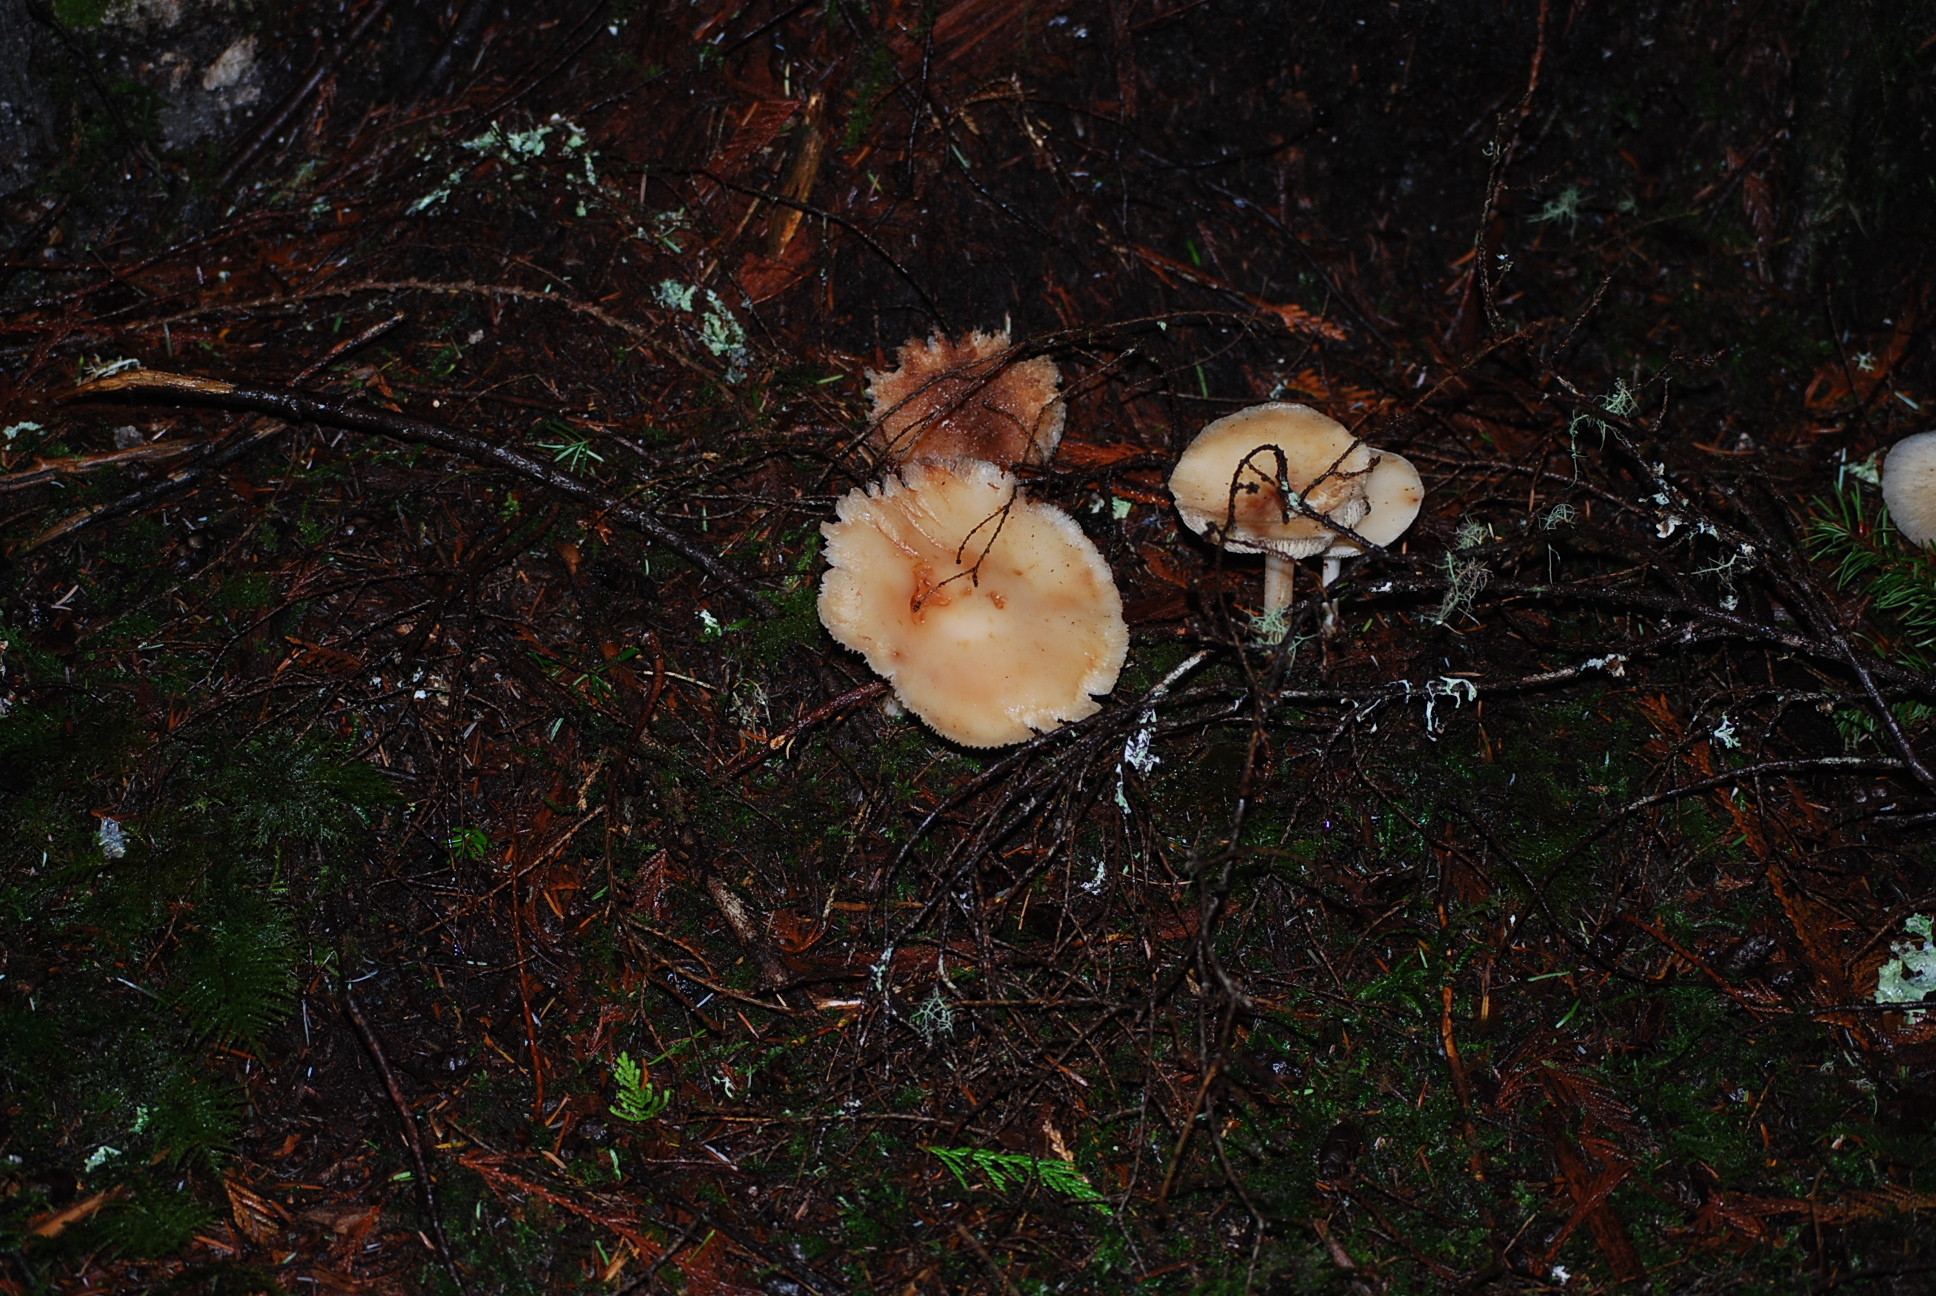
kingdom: Fungi
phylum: Basidiomycota
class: Agaricomycetes
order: Agaricales
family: Omphalotaceae
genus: Rhodocollybia
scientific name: Rhodocollybia butyracea
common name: Butter cap
